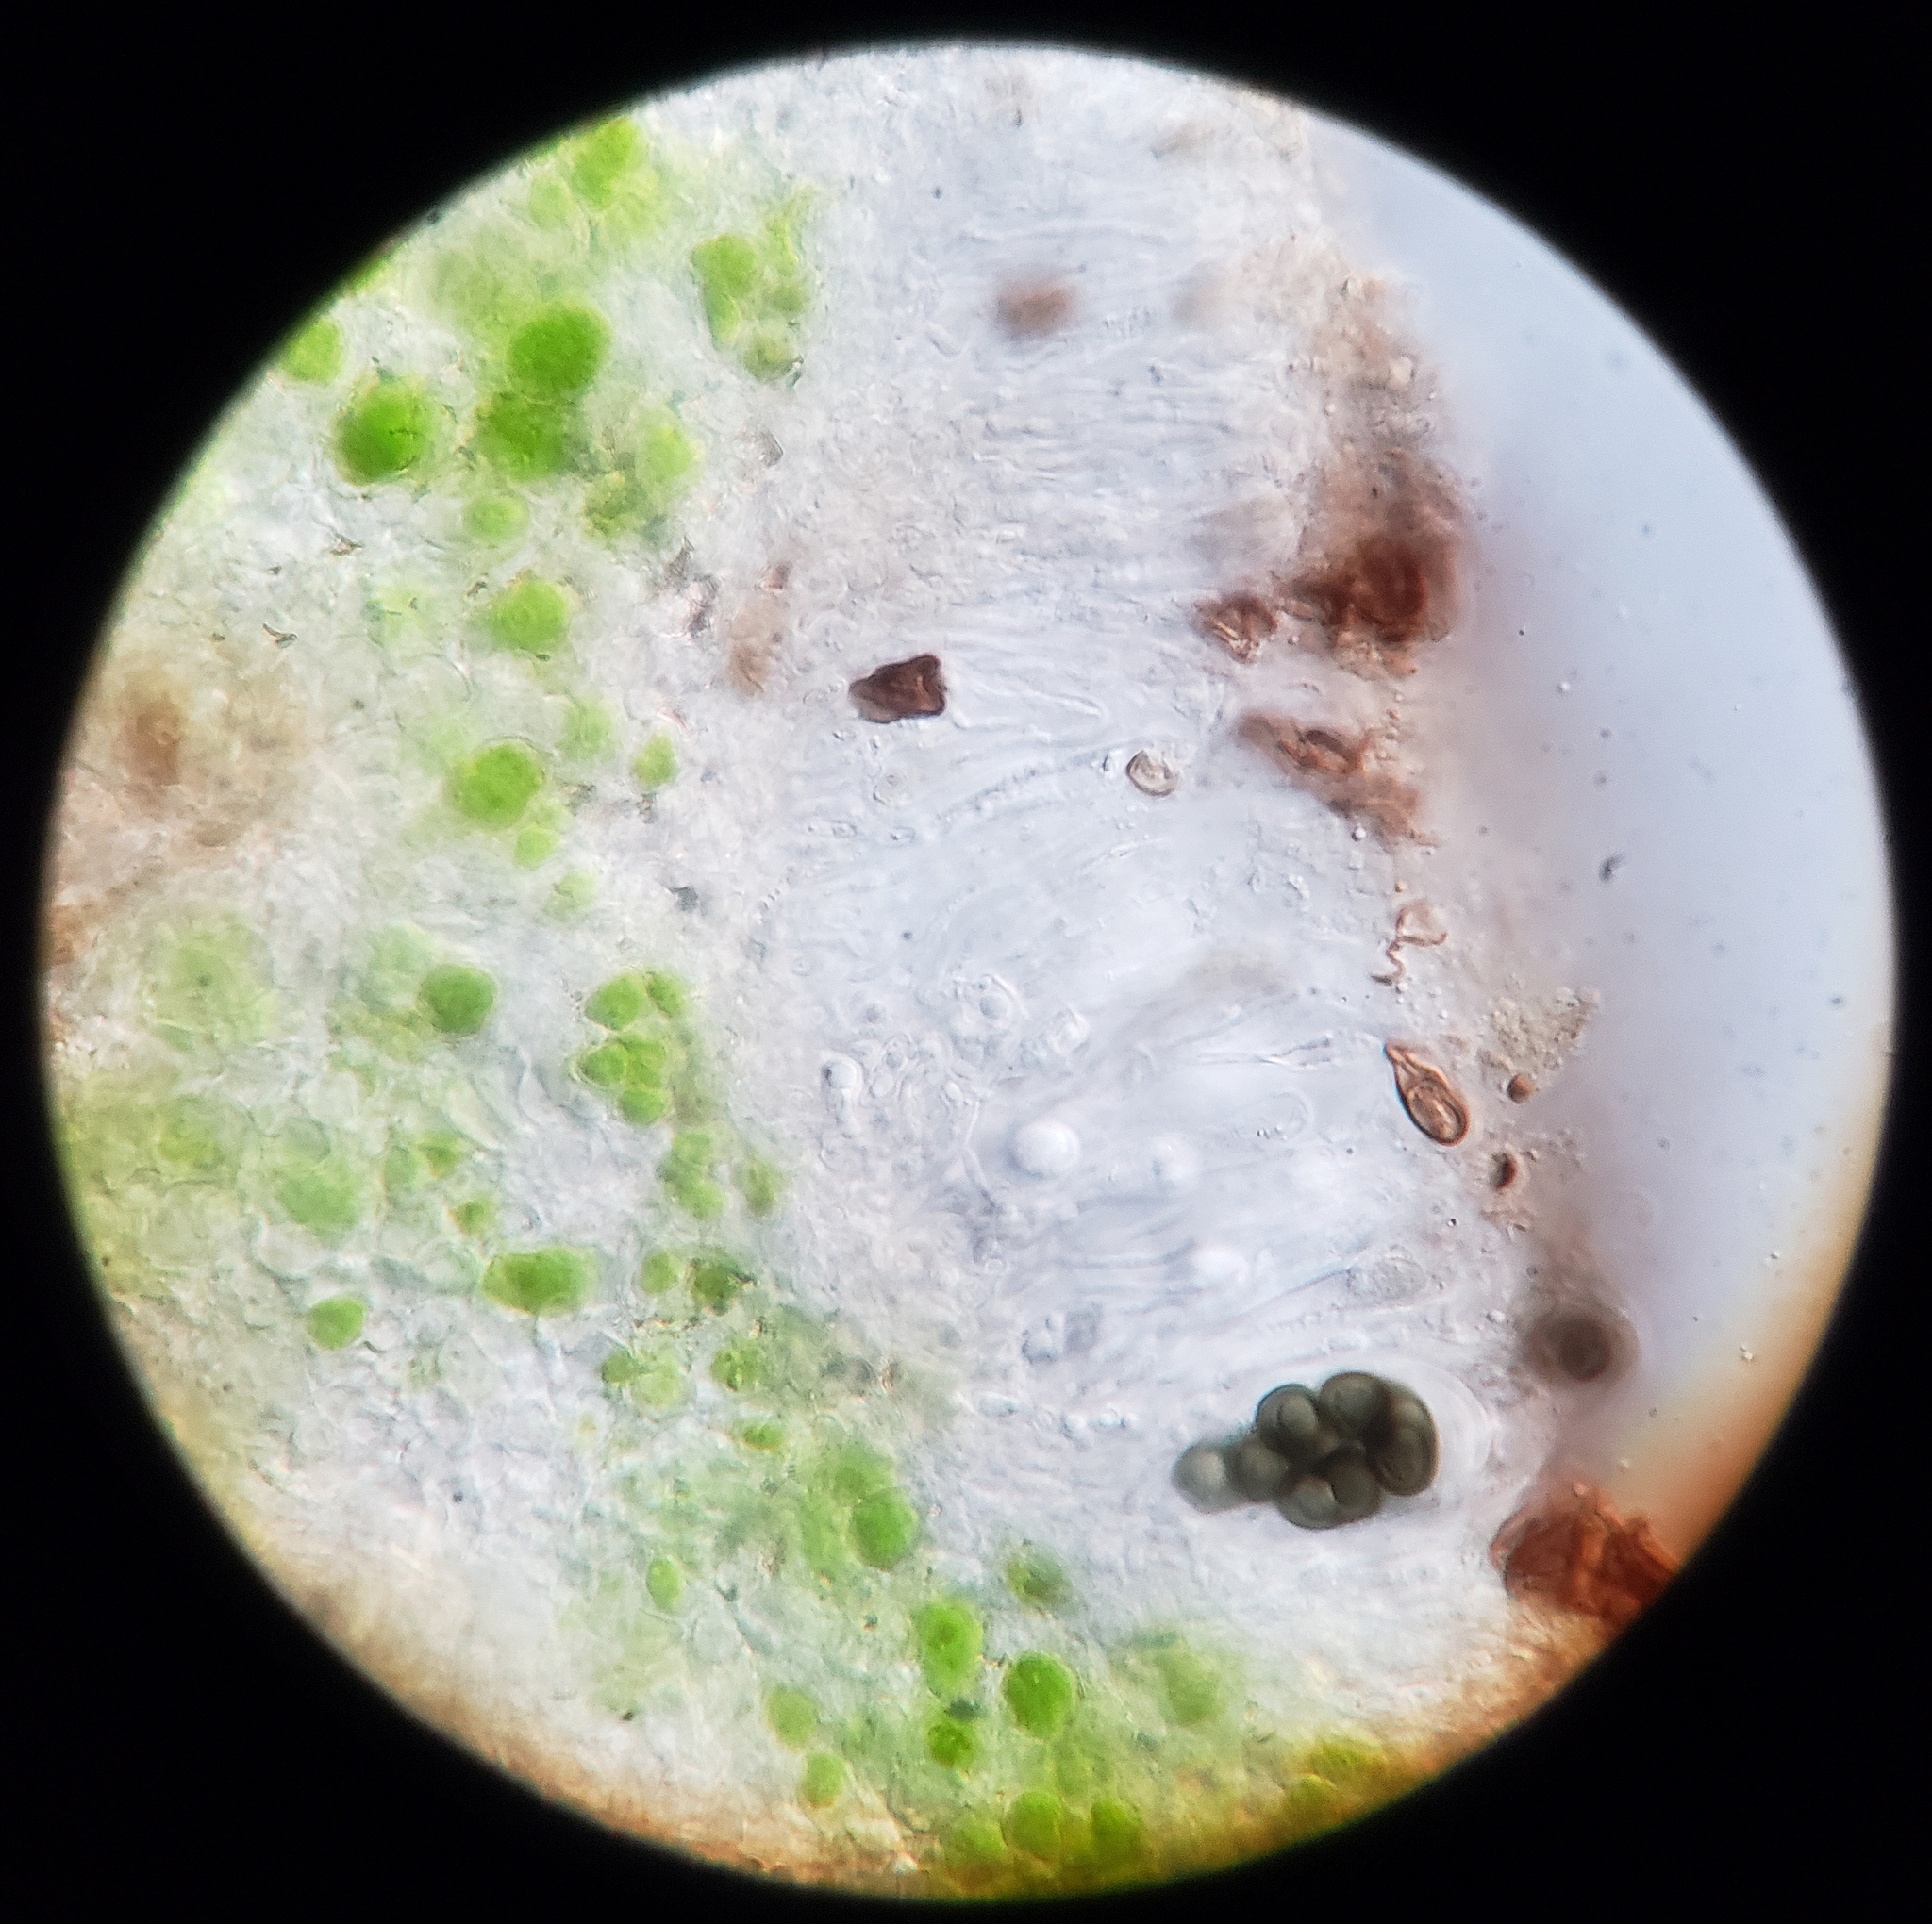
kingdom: Fungi
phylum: Ascomycota
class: Lecanoromycetes
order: Caliciales
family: Caliciaceae
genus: Buellia
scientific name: Buellia dakotensis
